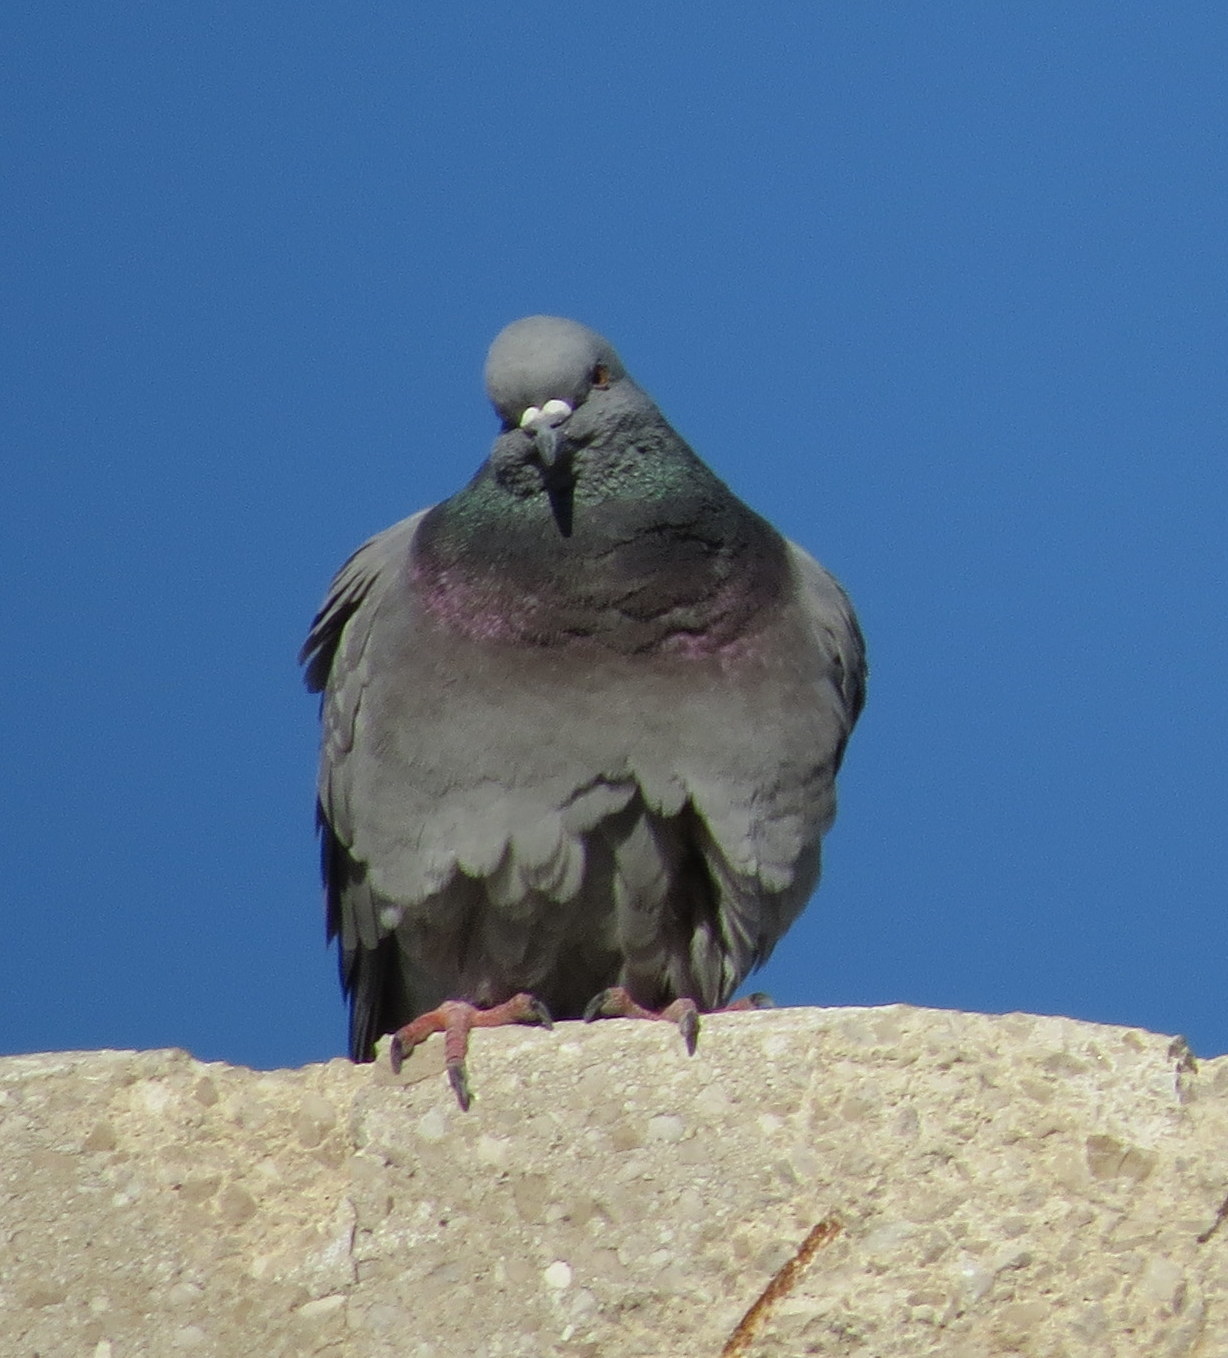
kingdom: Animalia
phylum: Chordata
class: Aves
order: Columbiformes
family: Columbidae
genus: Columba
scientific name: Columba livia
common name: Rock pigeon
